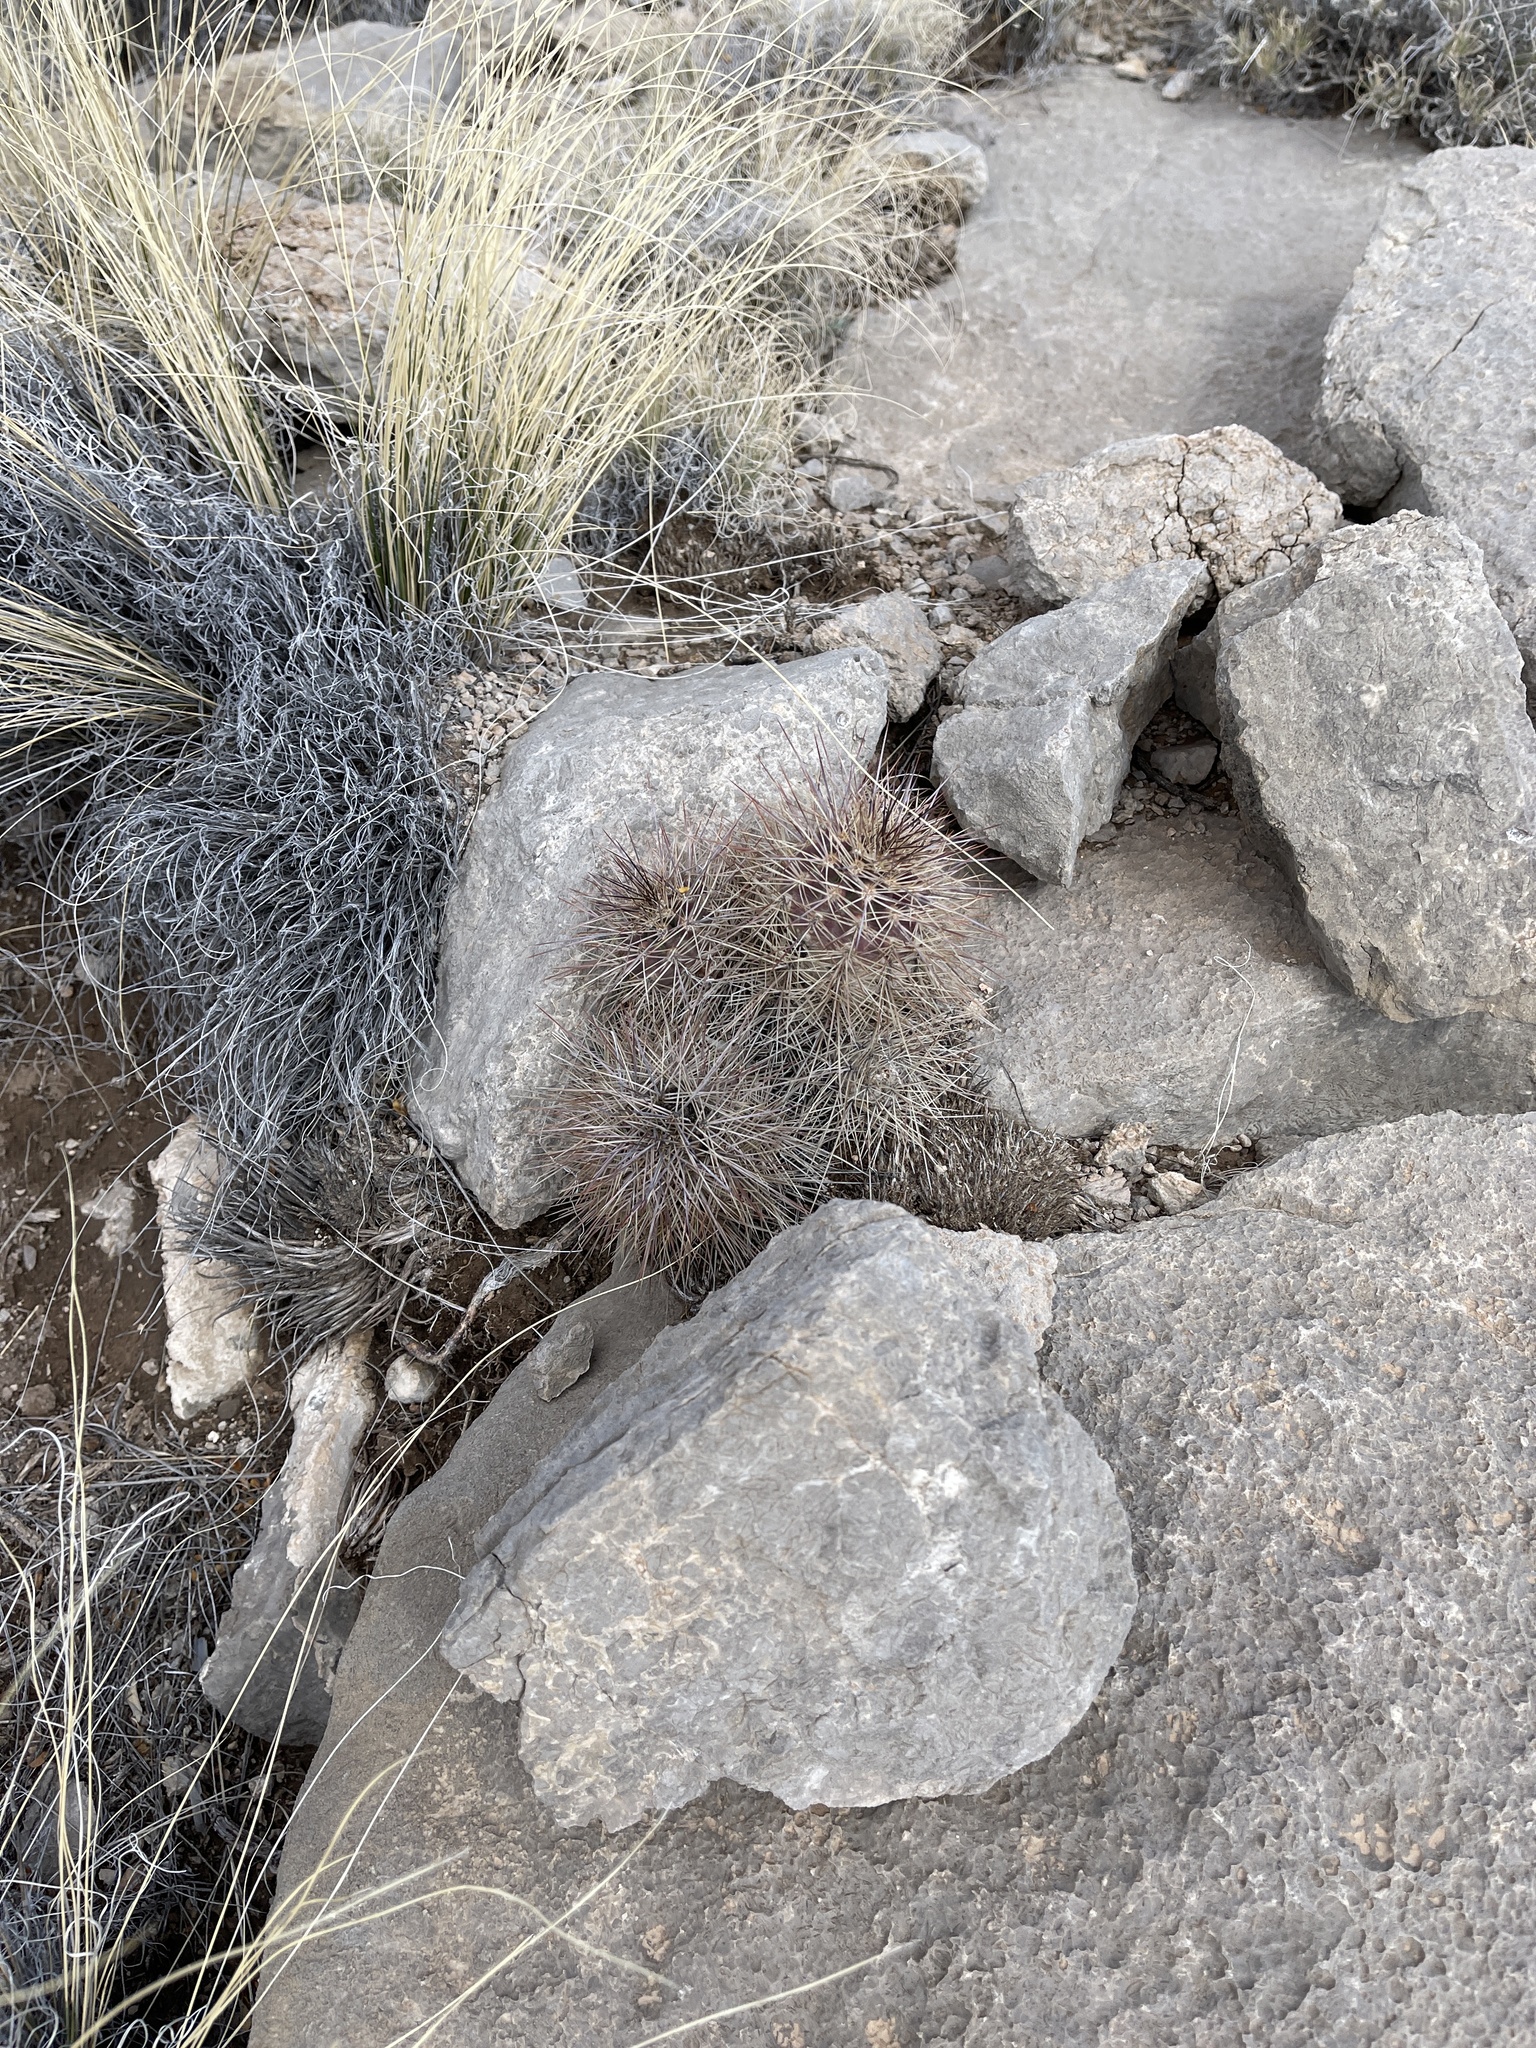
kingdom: Plantae
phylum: Tracheophyta
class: Magnoliopsida
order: Caryophyllales
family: Cactaceae
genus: Echinocereus
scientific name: Echinocereus coccineus
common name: Scarlet hedgehog cactus
